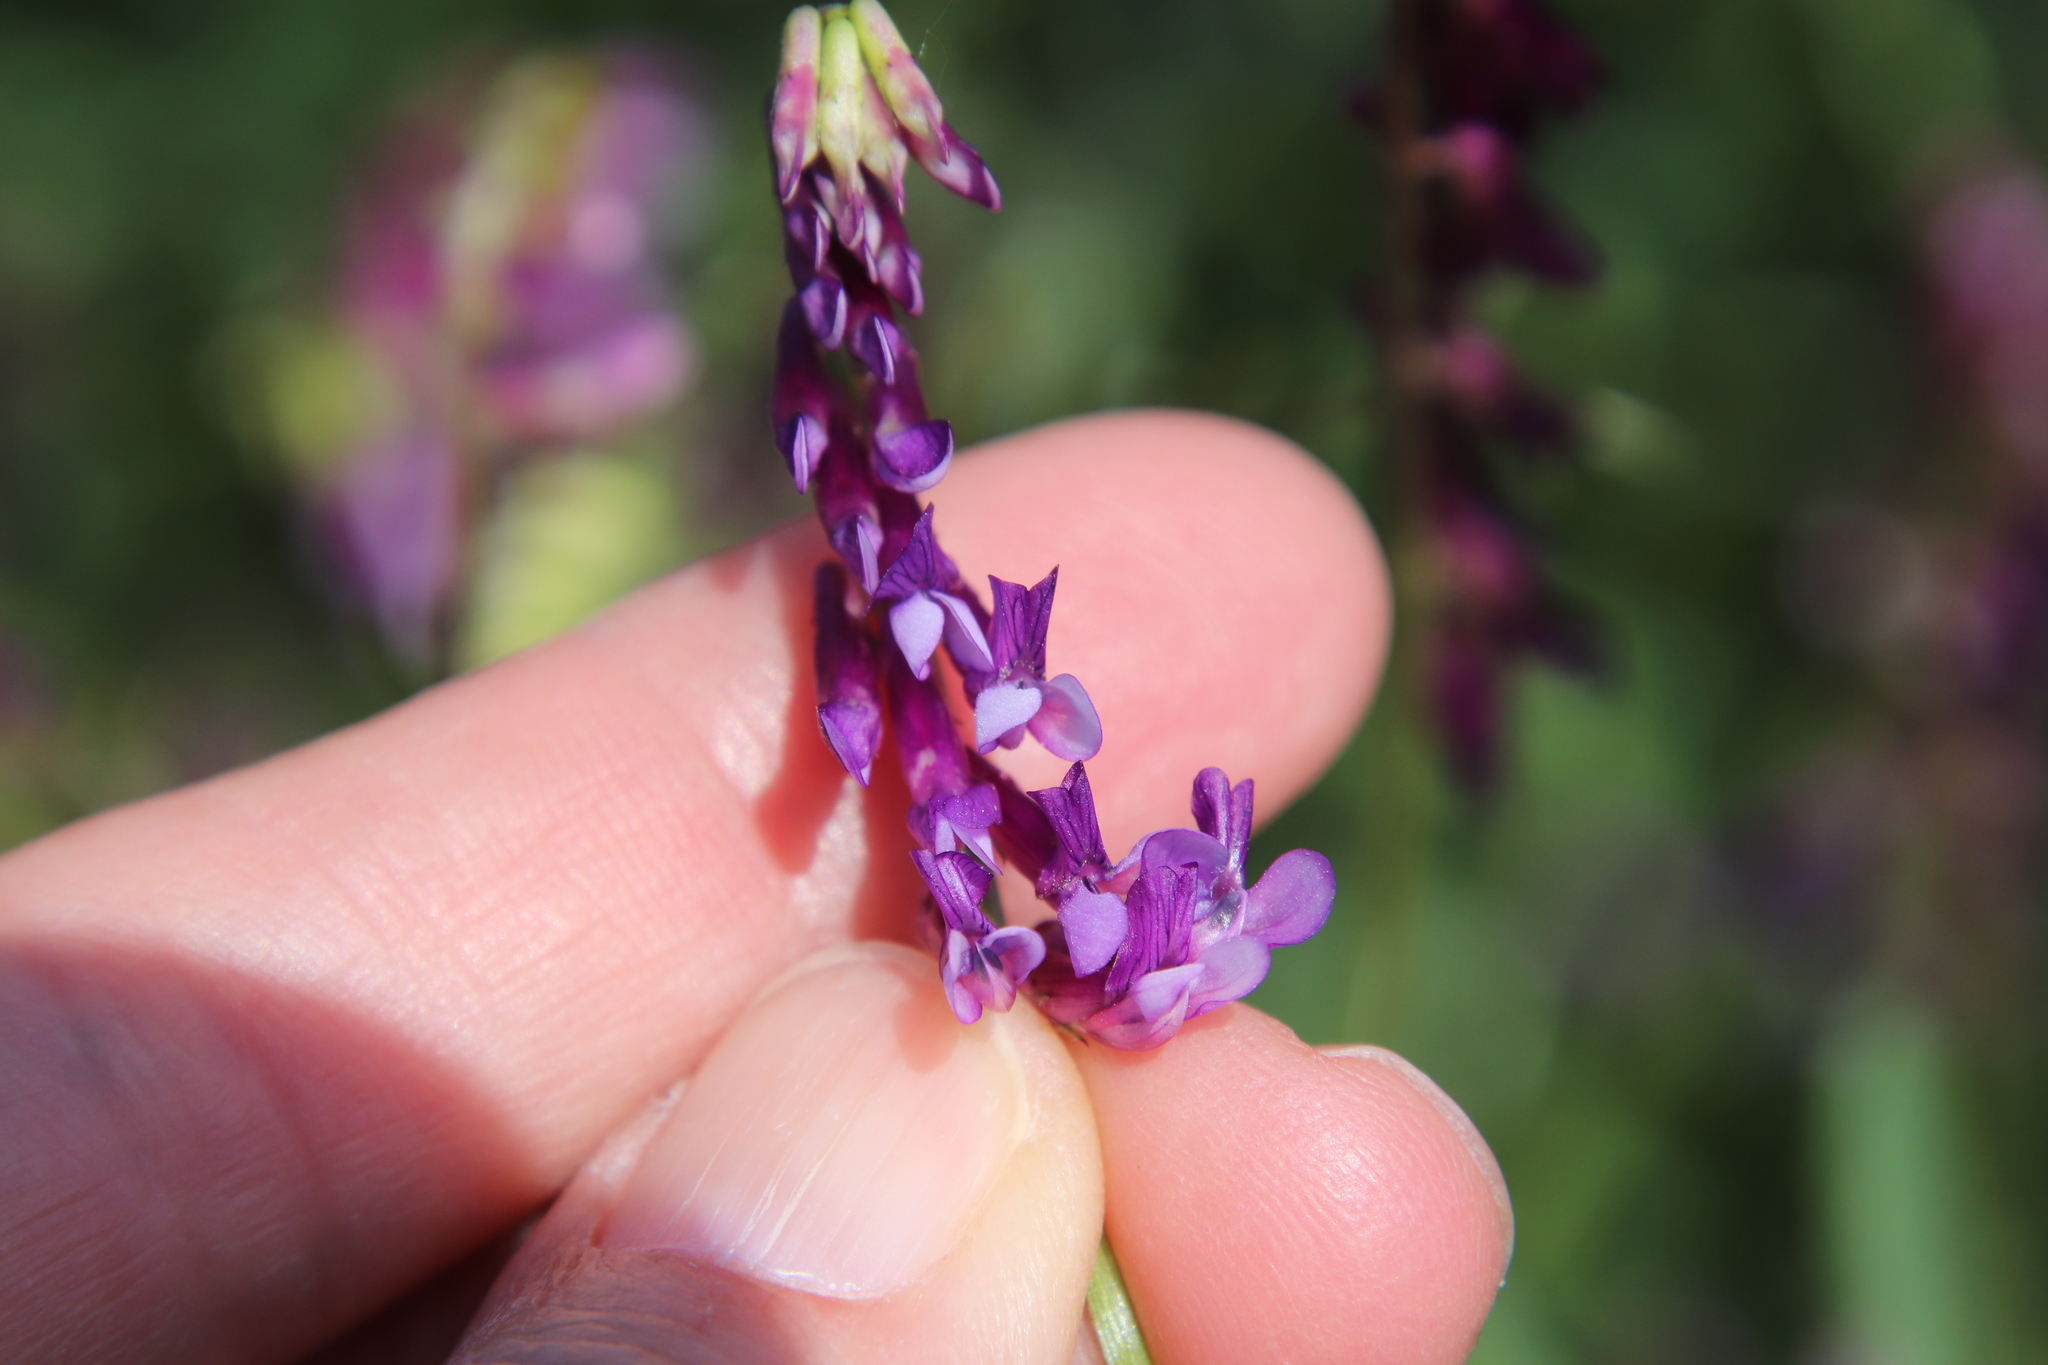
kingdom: Plantae
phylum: Tracheophyta
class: Magnoliopsida
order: Fabales
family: Fabaceae
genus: Vicia
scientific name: Vicia villosa
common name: Fodder vetch
